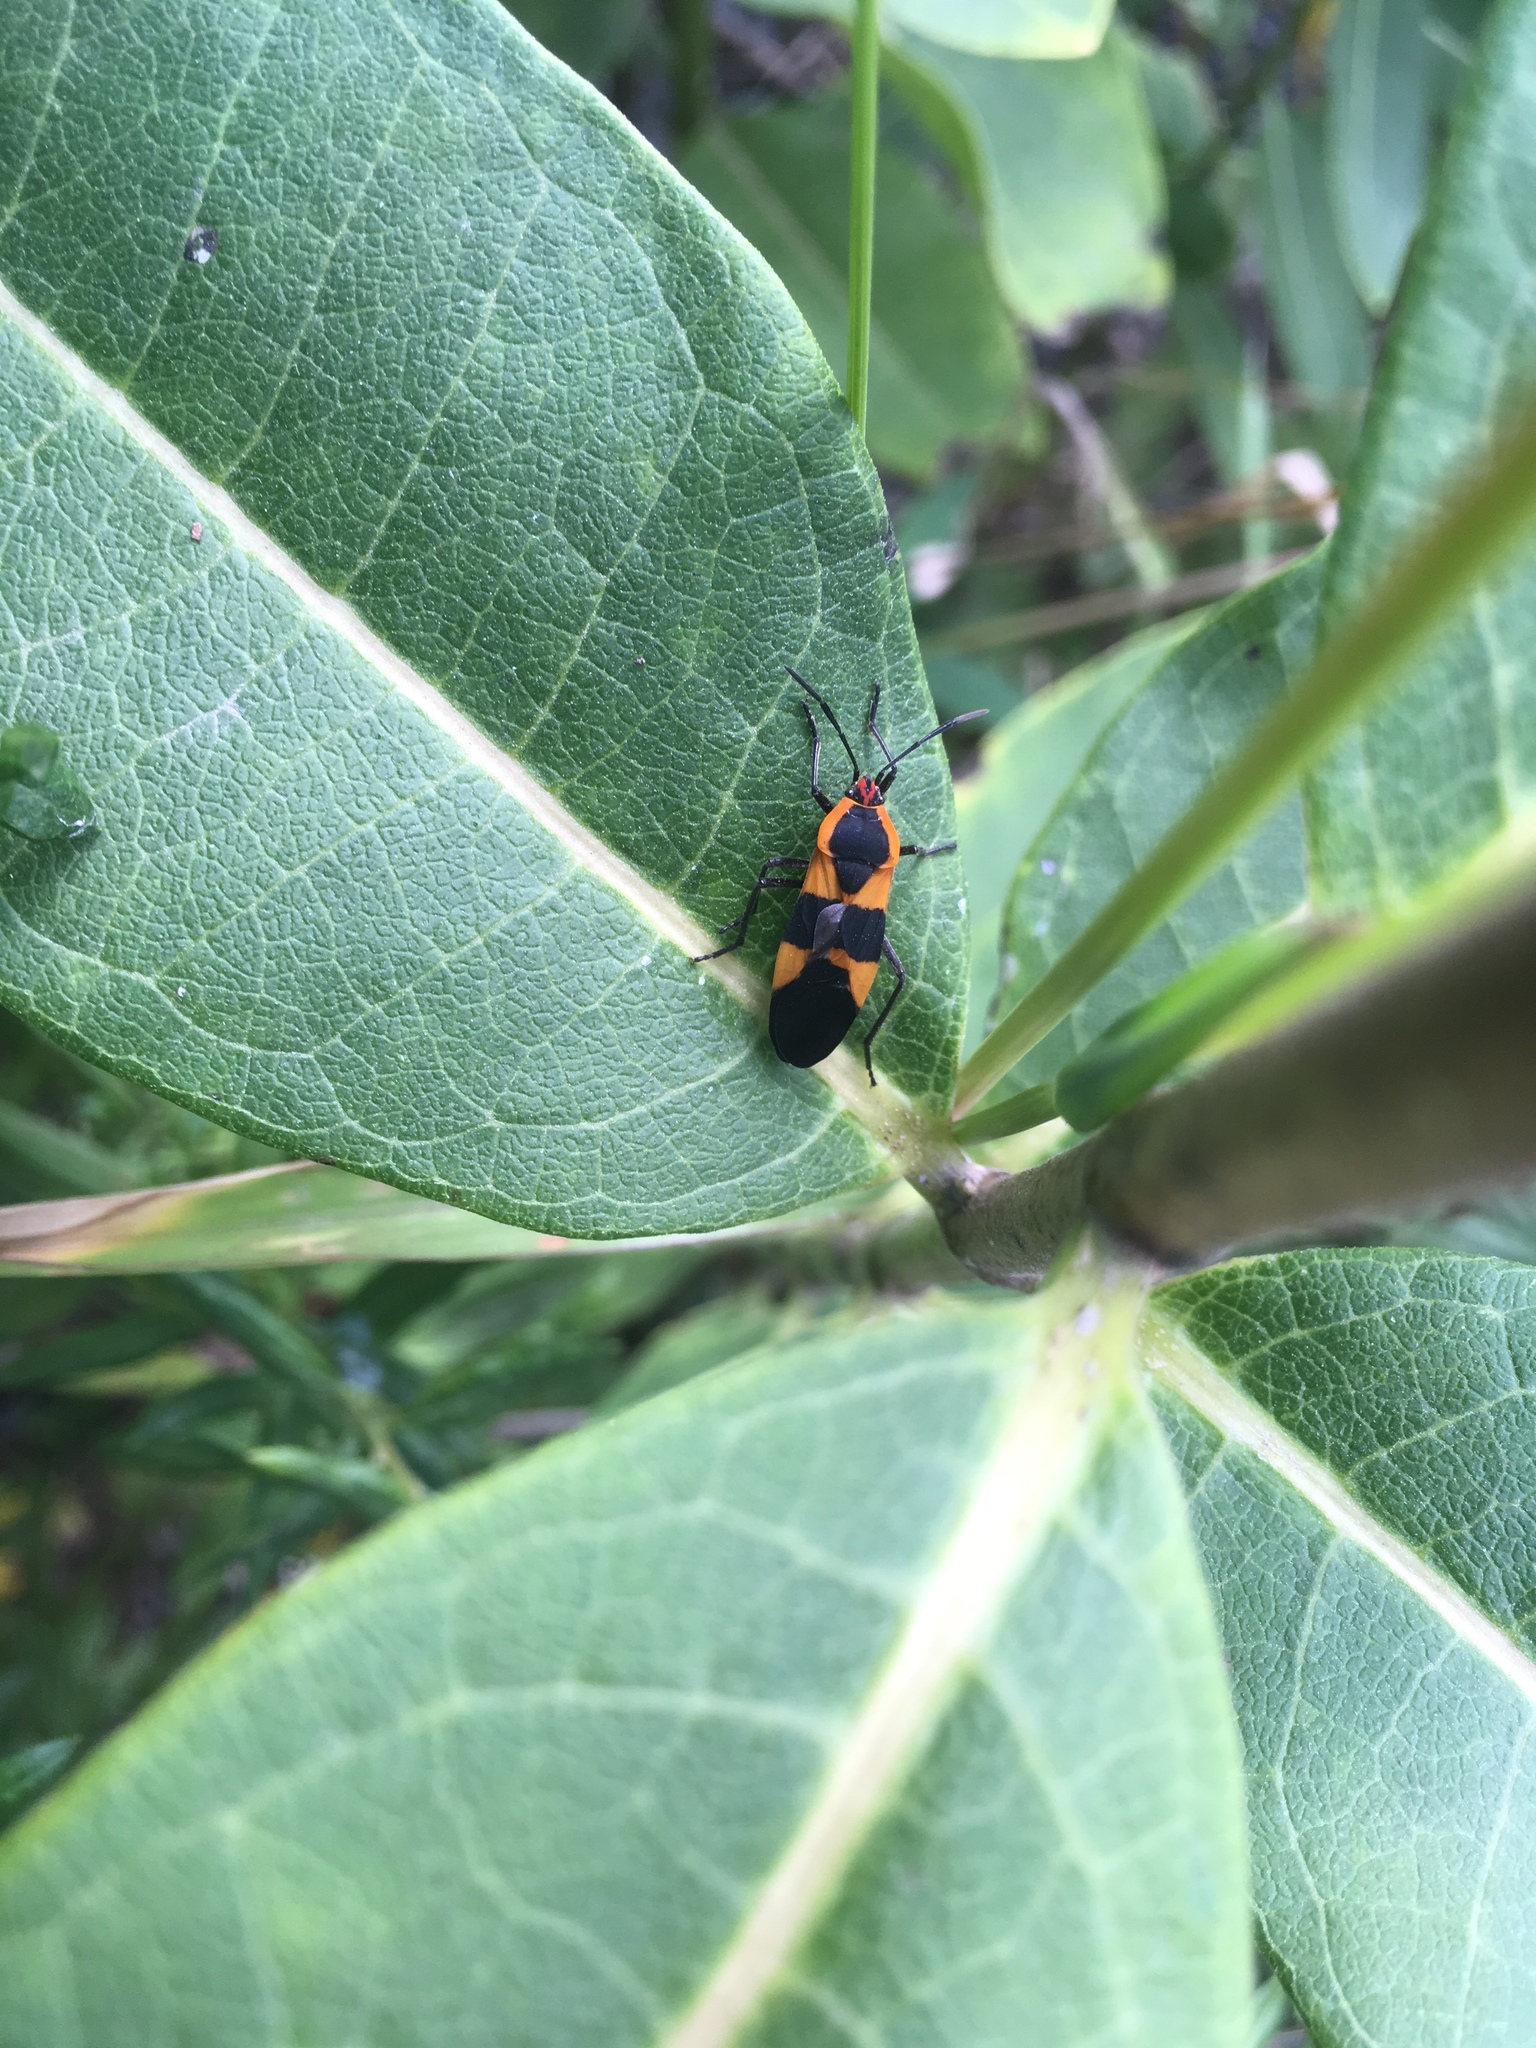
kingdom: Animalia
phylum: Arthropoda
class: Insecta
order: Hemiptera
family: Lygaeidae
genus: Oncopeltus
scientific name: Oncopeltus fasciatus
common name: Large milkweed bug
